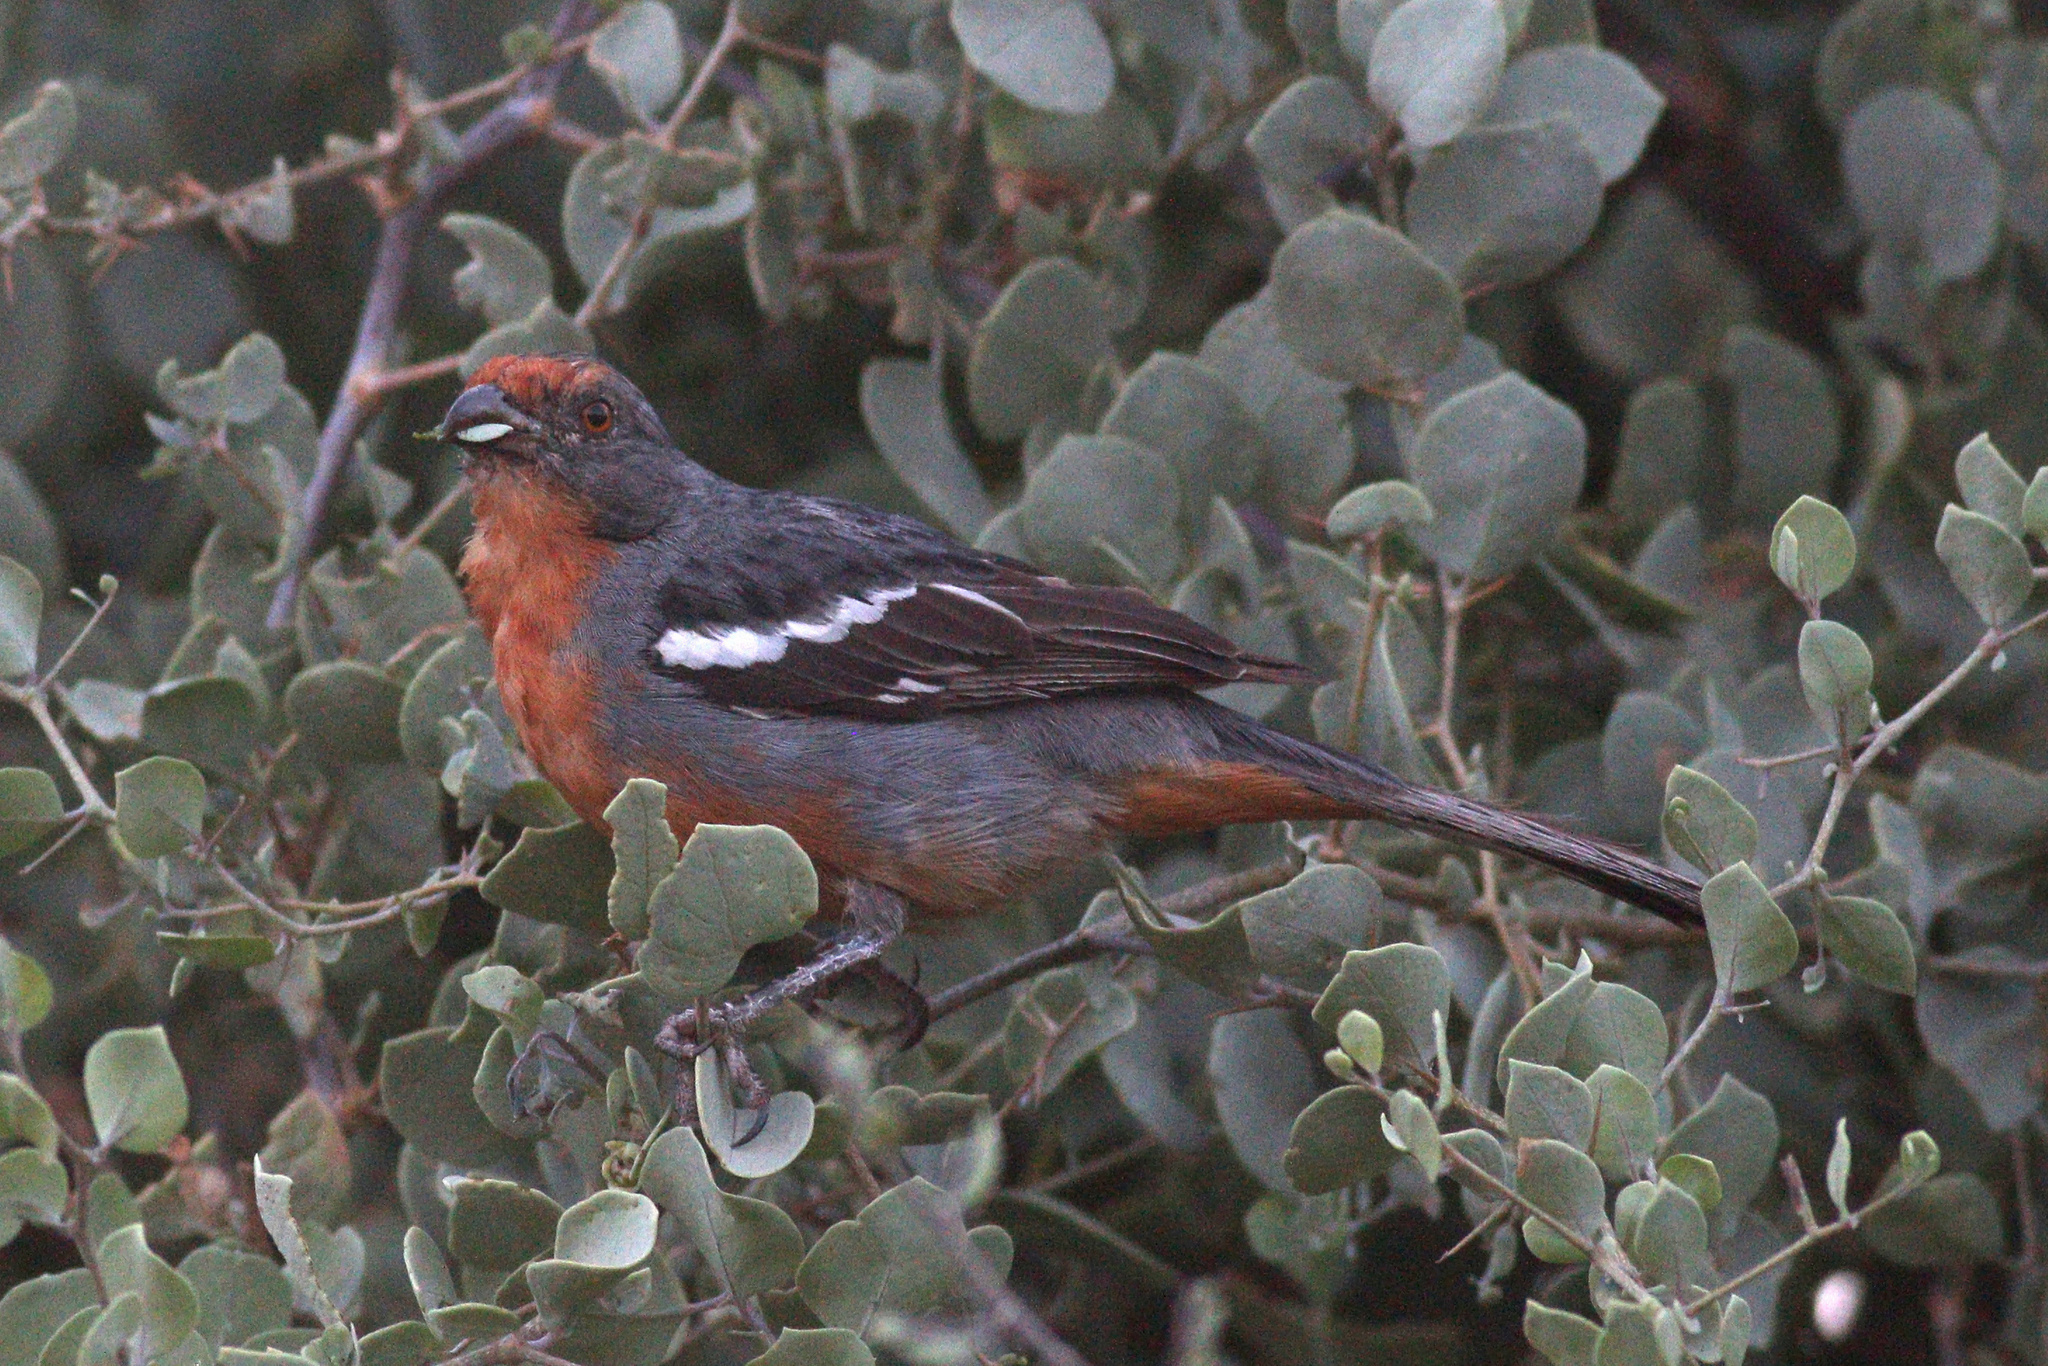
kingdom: Animalia
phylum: Chordata
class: Aves
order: Passeriformes
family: Cotingidae
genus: Phytotoma
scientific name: Phytotoma rutila
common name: White-tipped plantcutter
